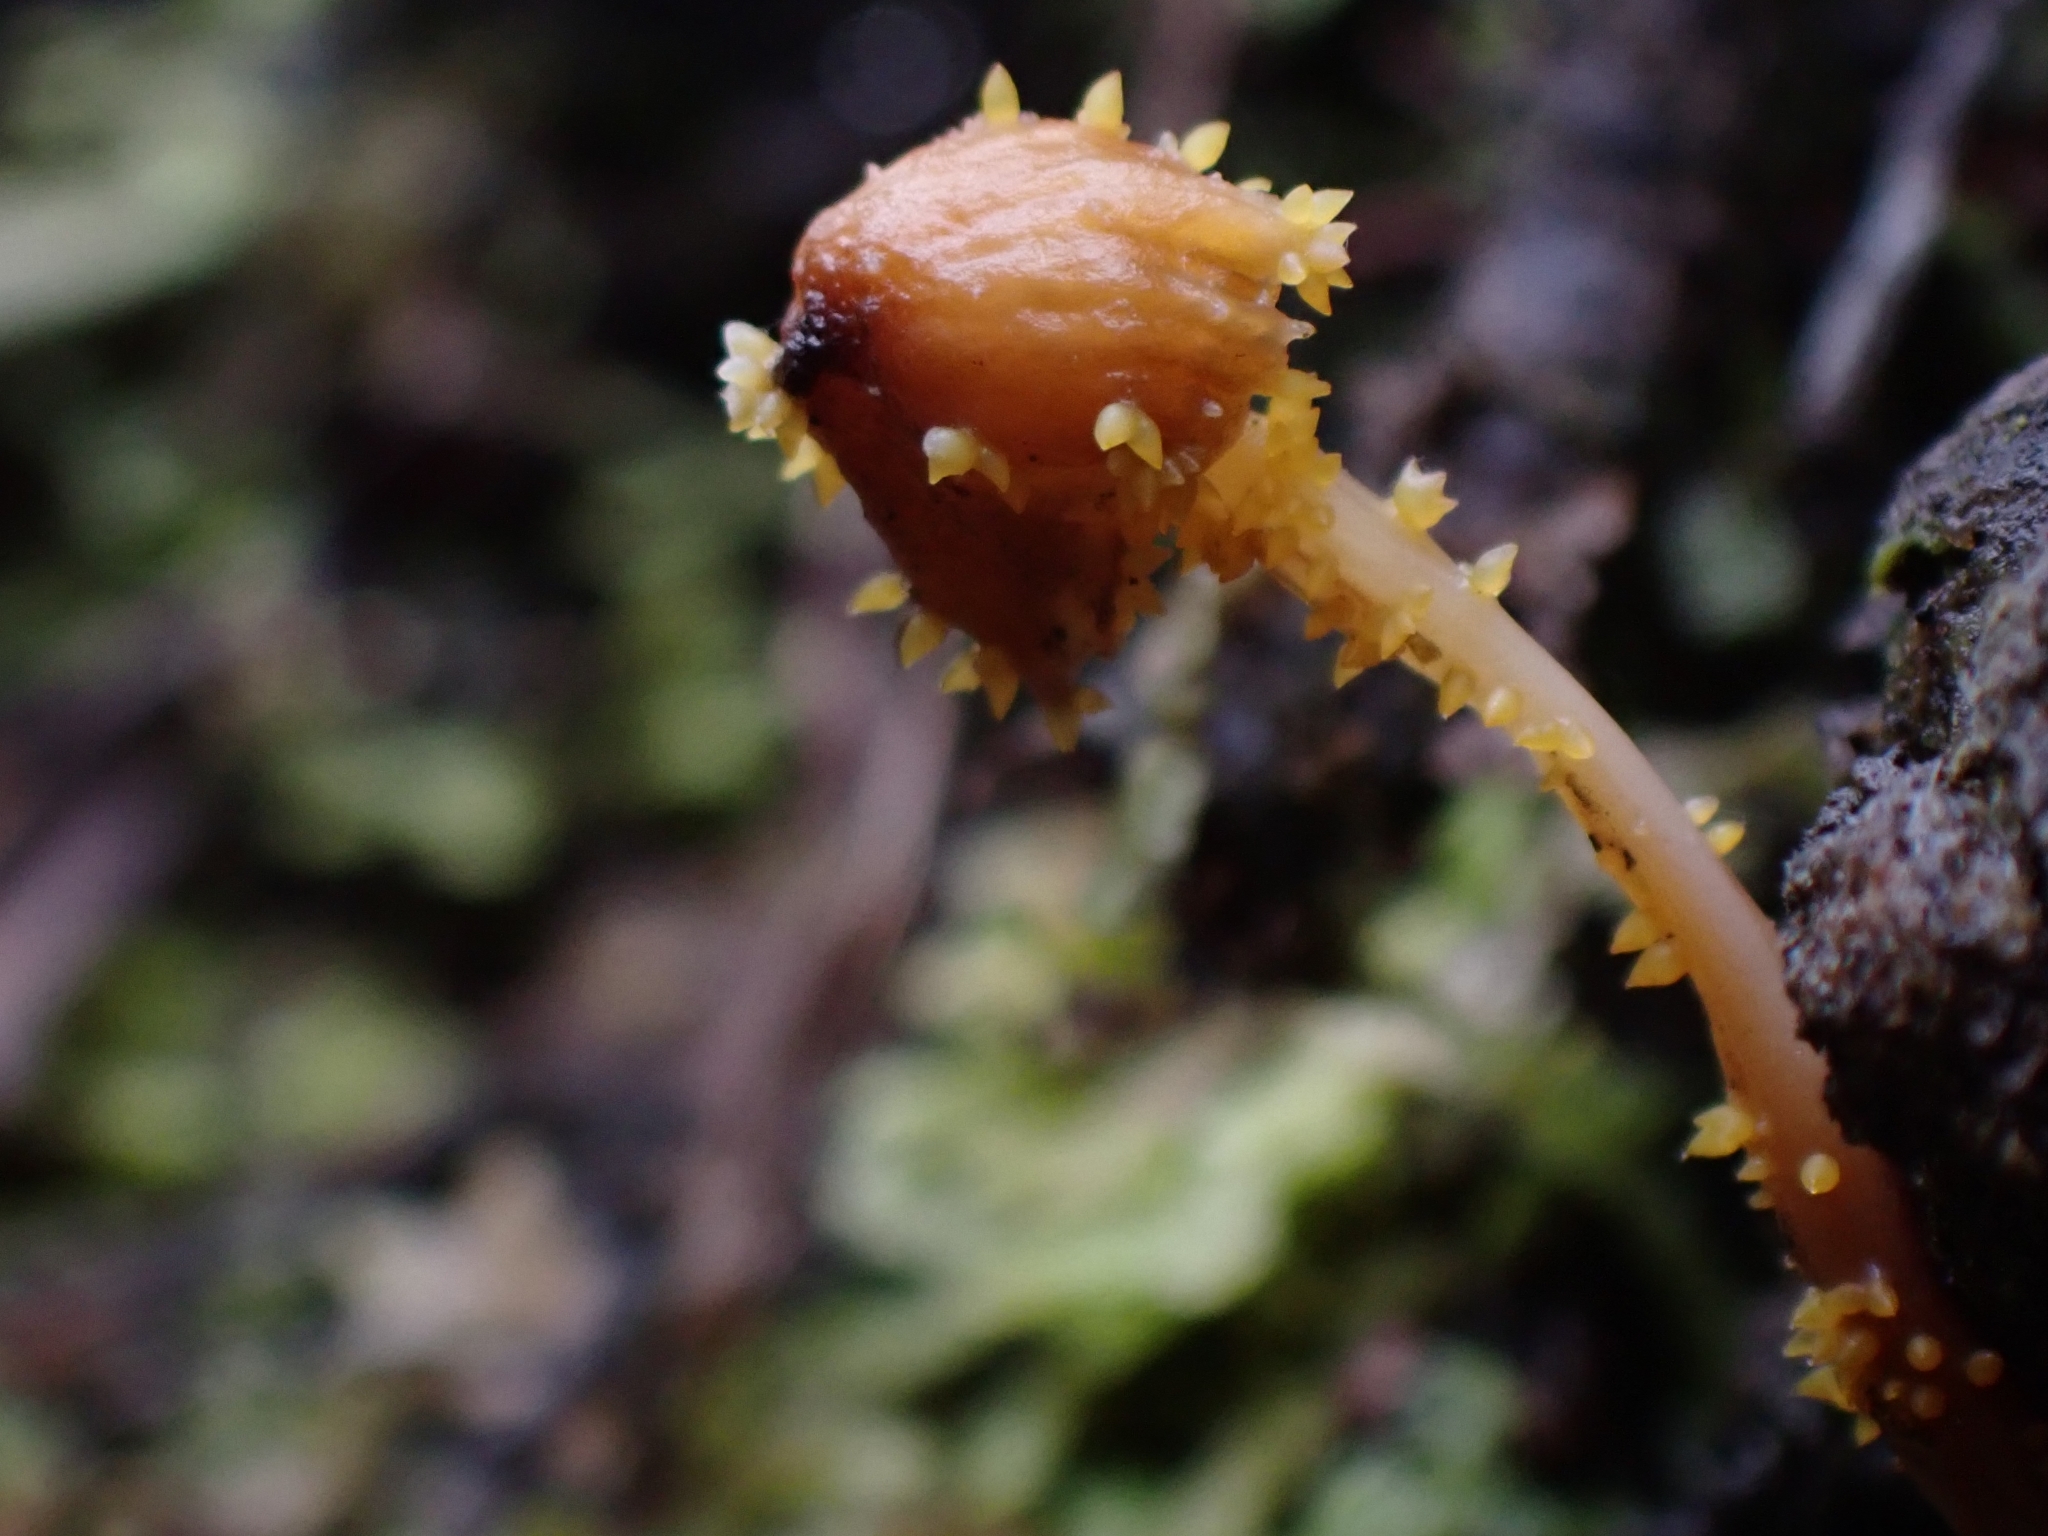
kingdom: Fungi
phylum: Ascomycota
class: Sordariomycetes
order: Hypocreales
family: Clavicipitaceae
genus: Neobarya
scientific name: Neobarya agaricicola
